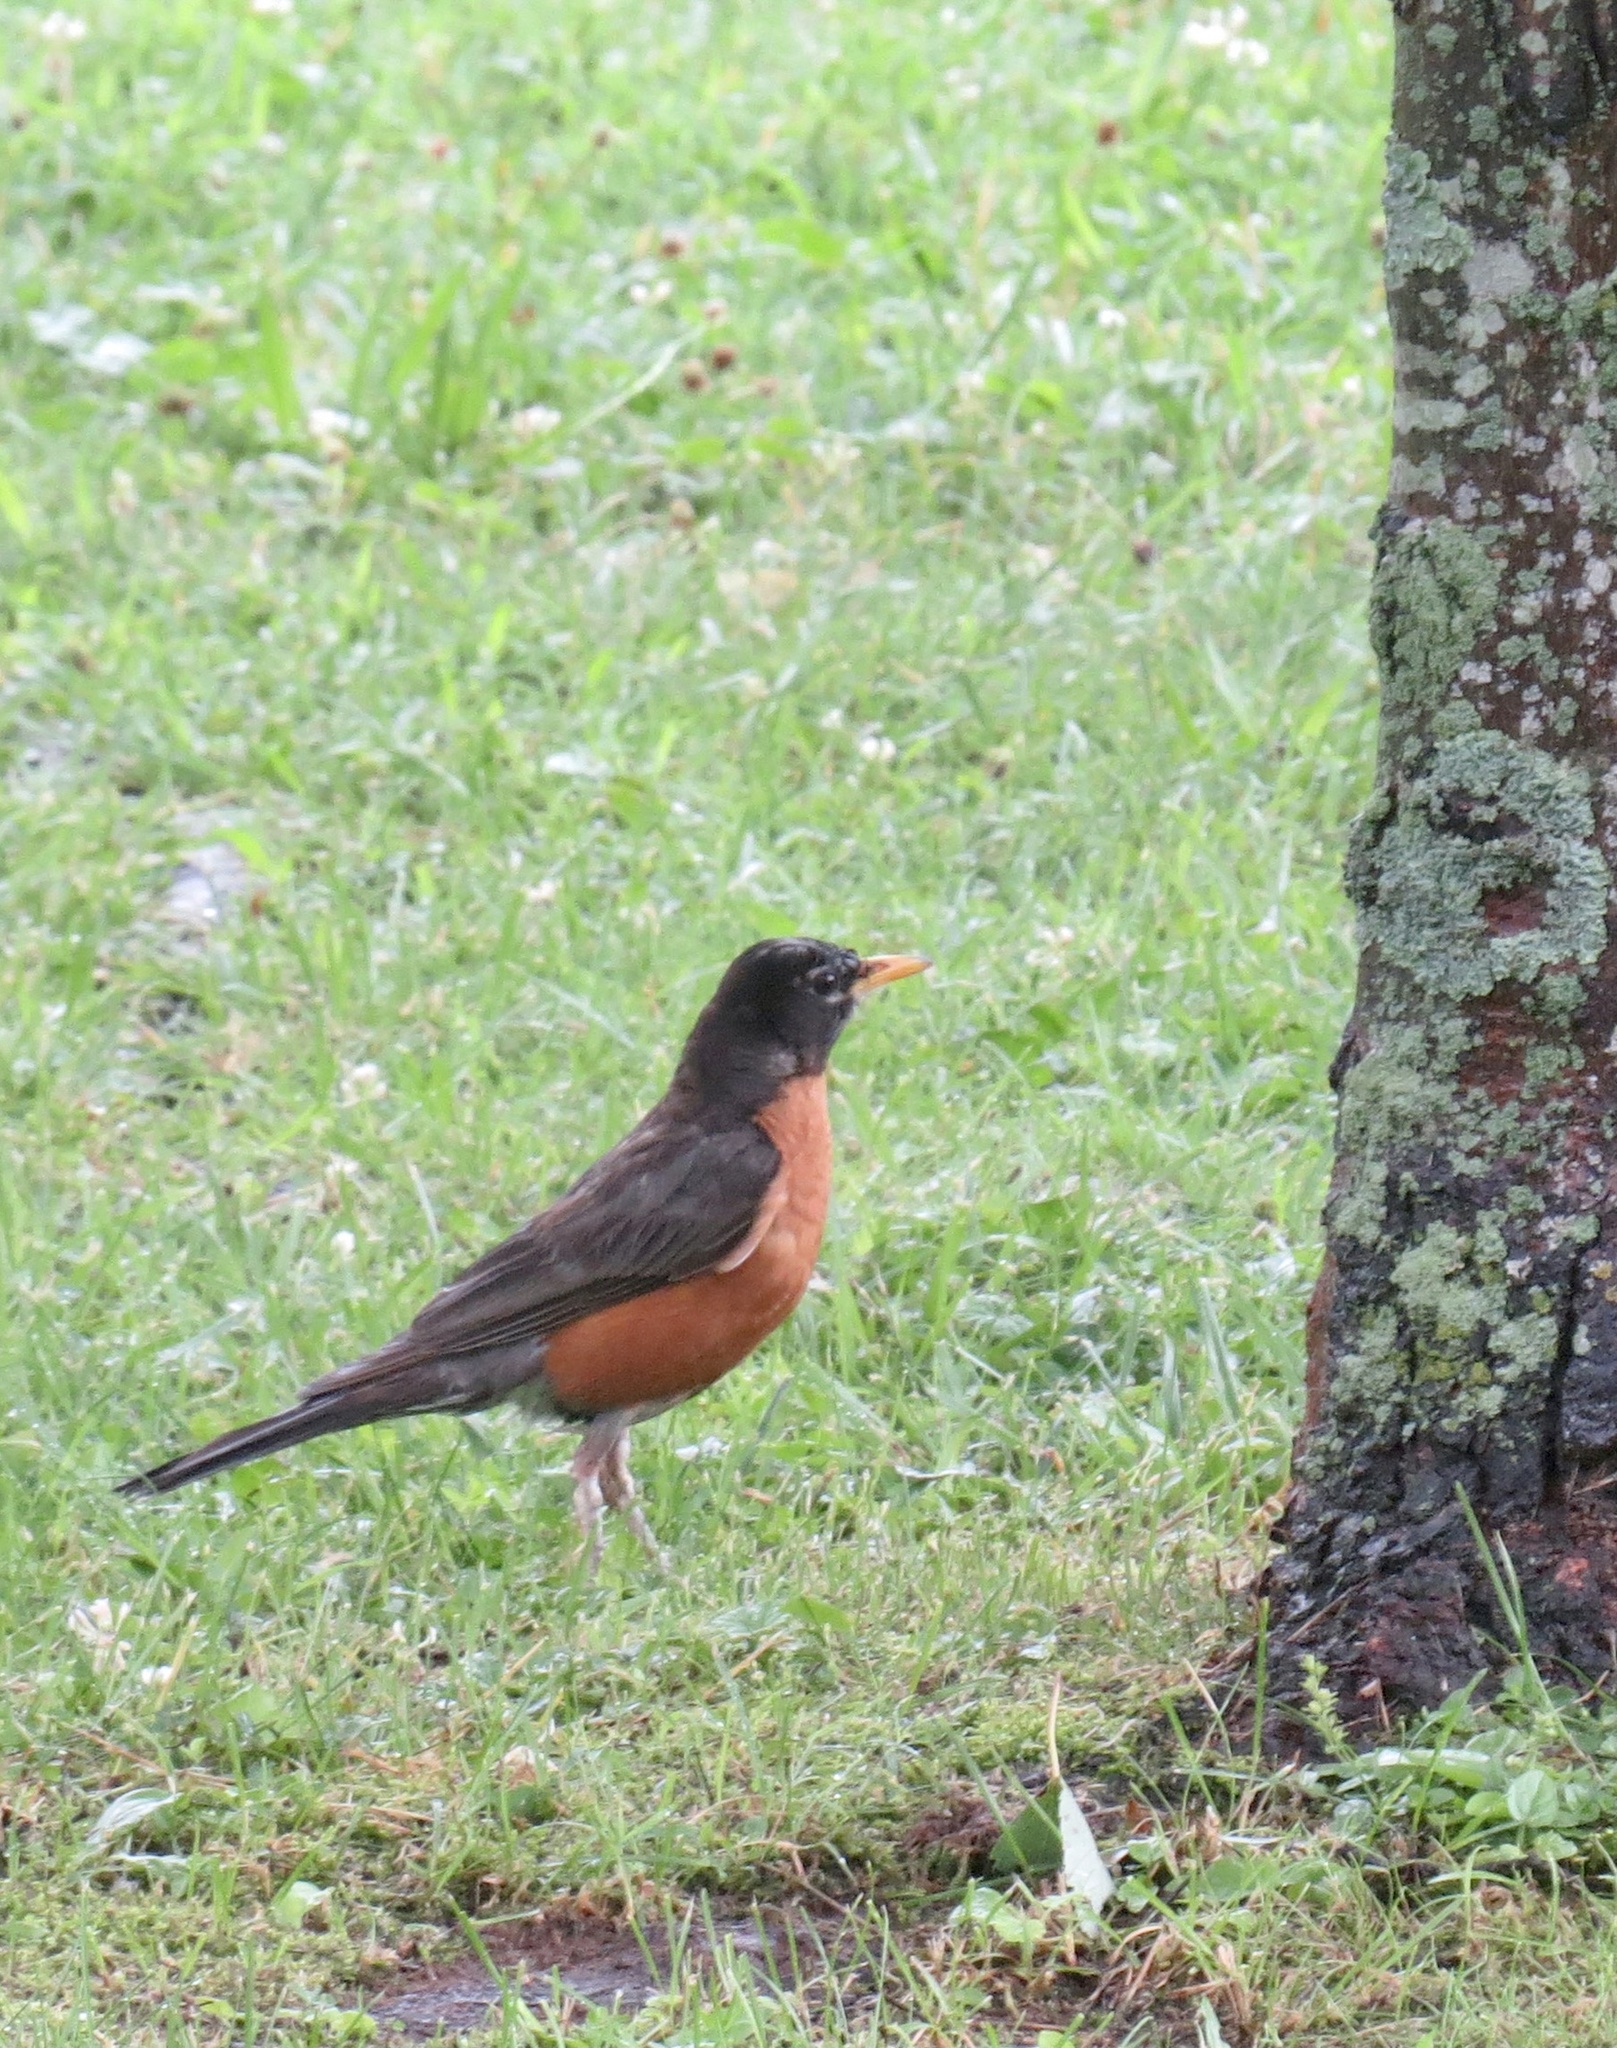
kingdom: Animalia
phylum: Chordata
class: Aves
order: Passeriformes
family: Turdidae
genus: Turdus
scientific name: Turdus migratorius
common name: American robin
